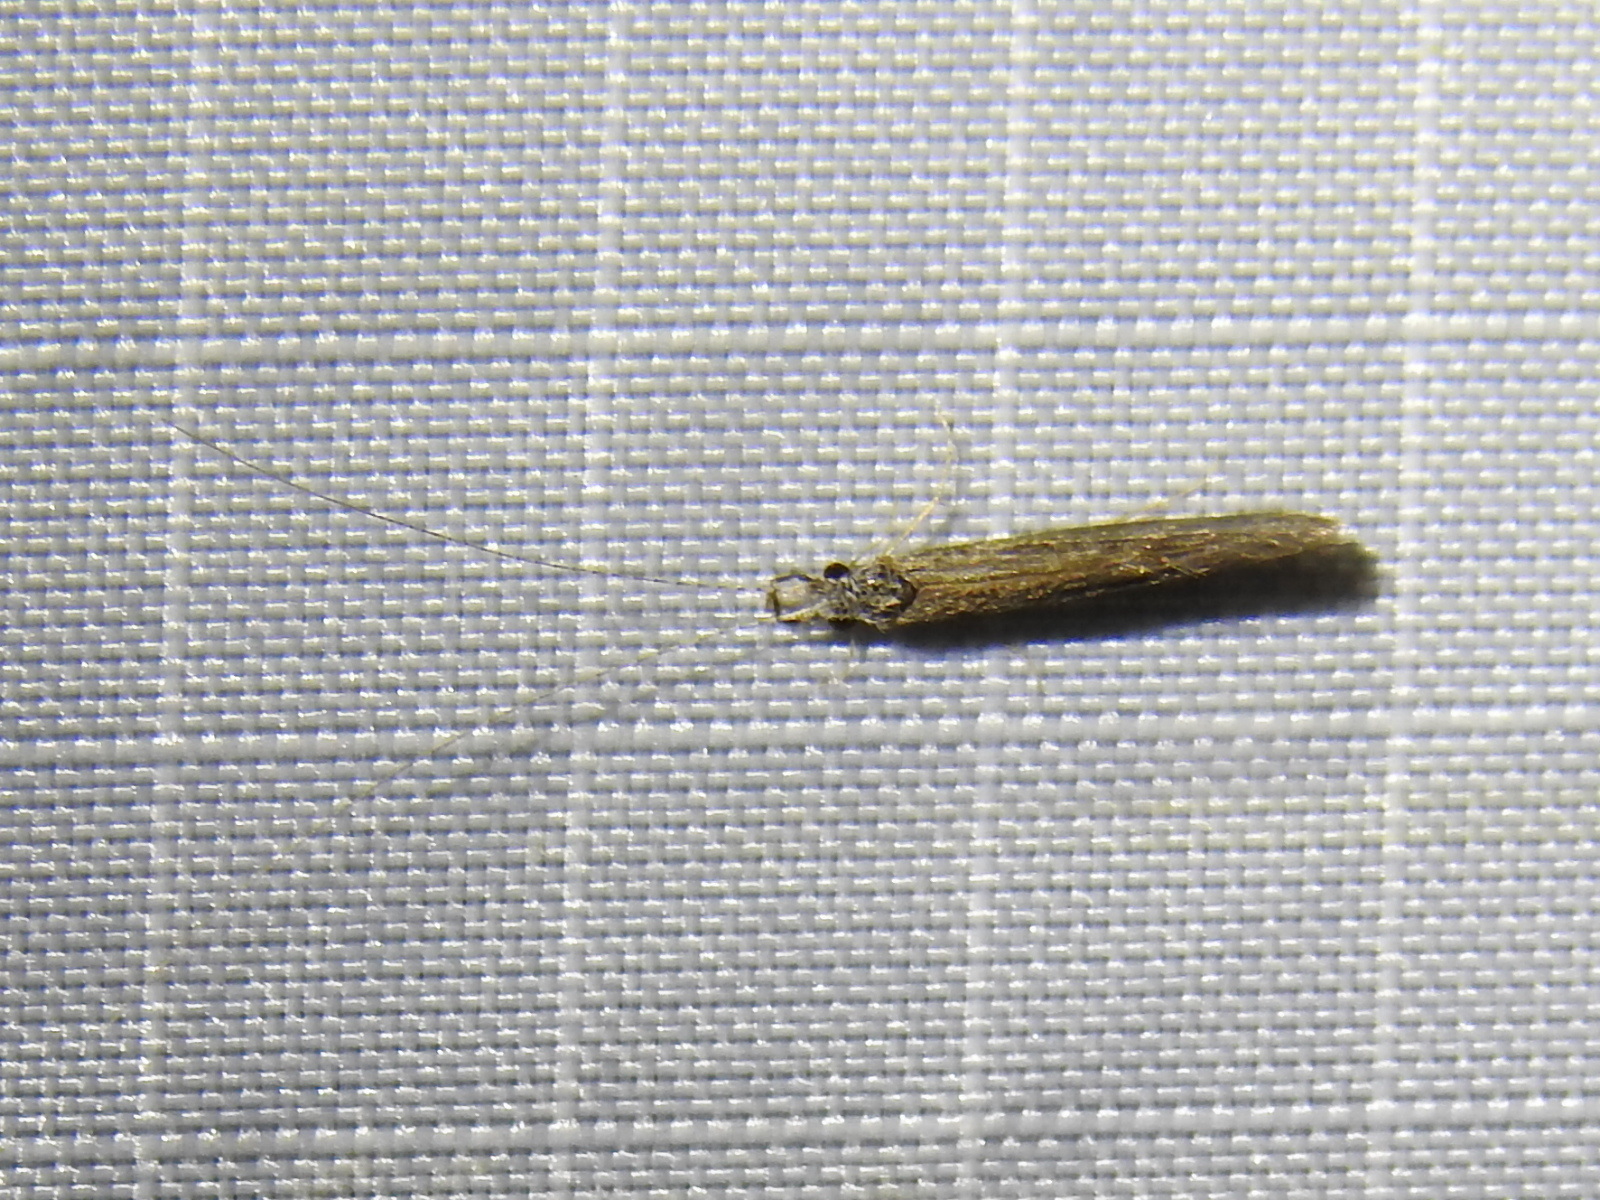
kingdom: Animalia
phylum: Arthropoda
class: Insecta
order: Trichoptera
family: Leptoceridae
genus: Leptocerus
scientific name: Leptocerus americanus
